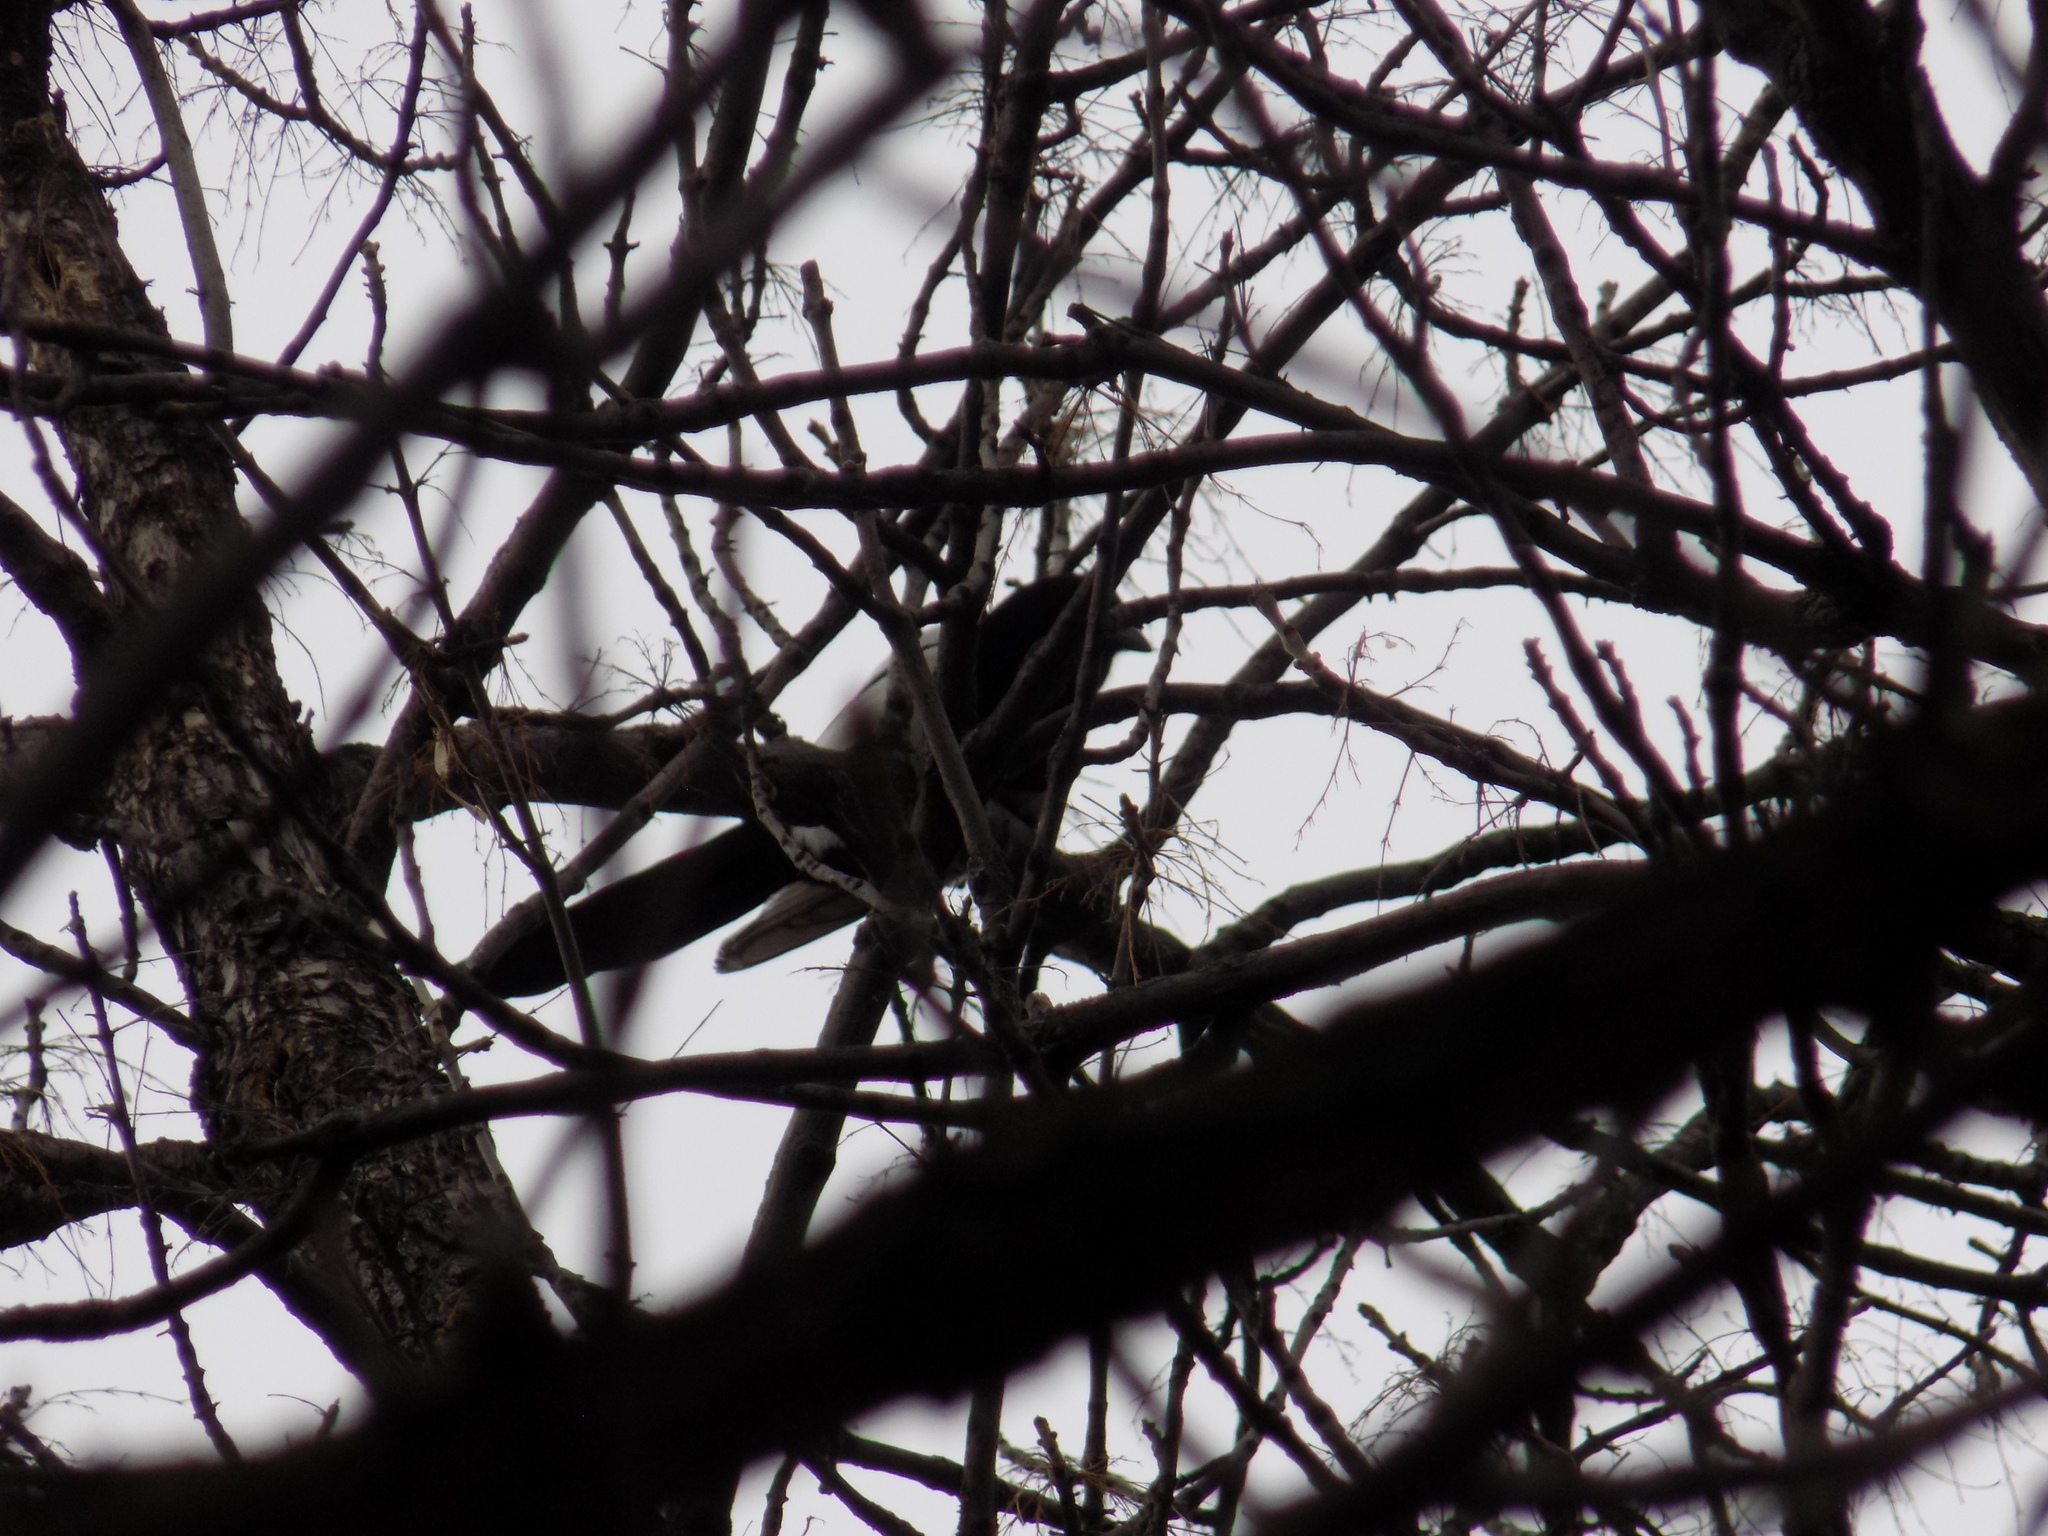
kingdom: Animalia
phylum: Chordata
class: Aves
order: Passeriformes
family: Corvidae
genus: Pica
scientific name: Pica pica
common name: Eurasian magpie
